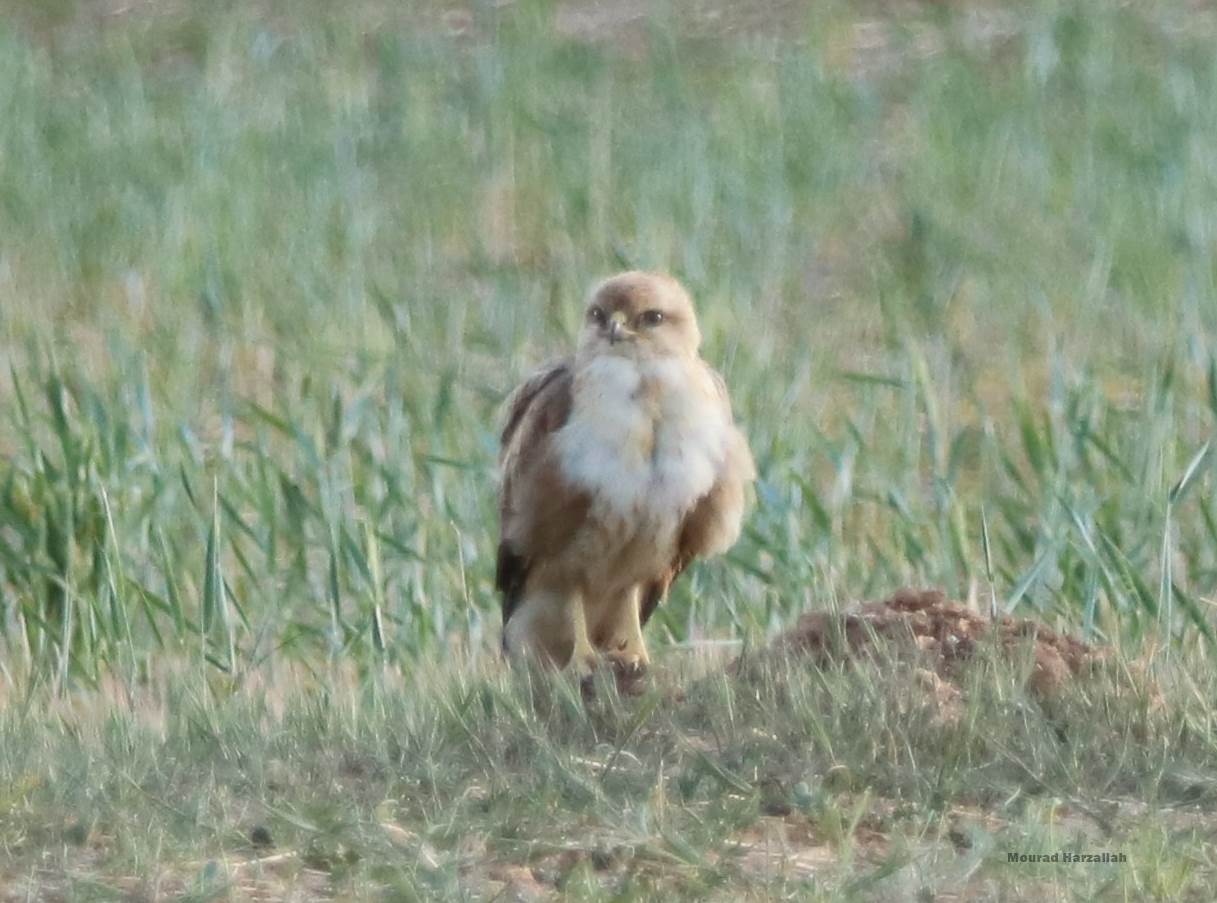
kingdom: Animalia
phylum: Chordata
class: Aves
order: Accipitriformes
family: Accipitridae
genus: Buteo
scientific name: Buteo rufinus
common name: Long-legged buzzard
